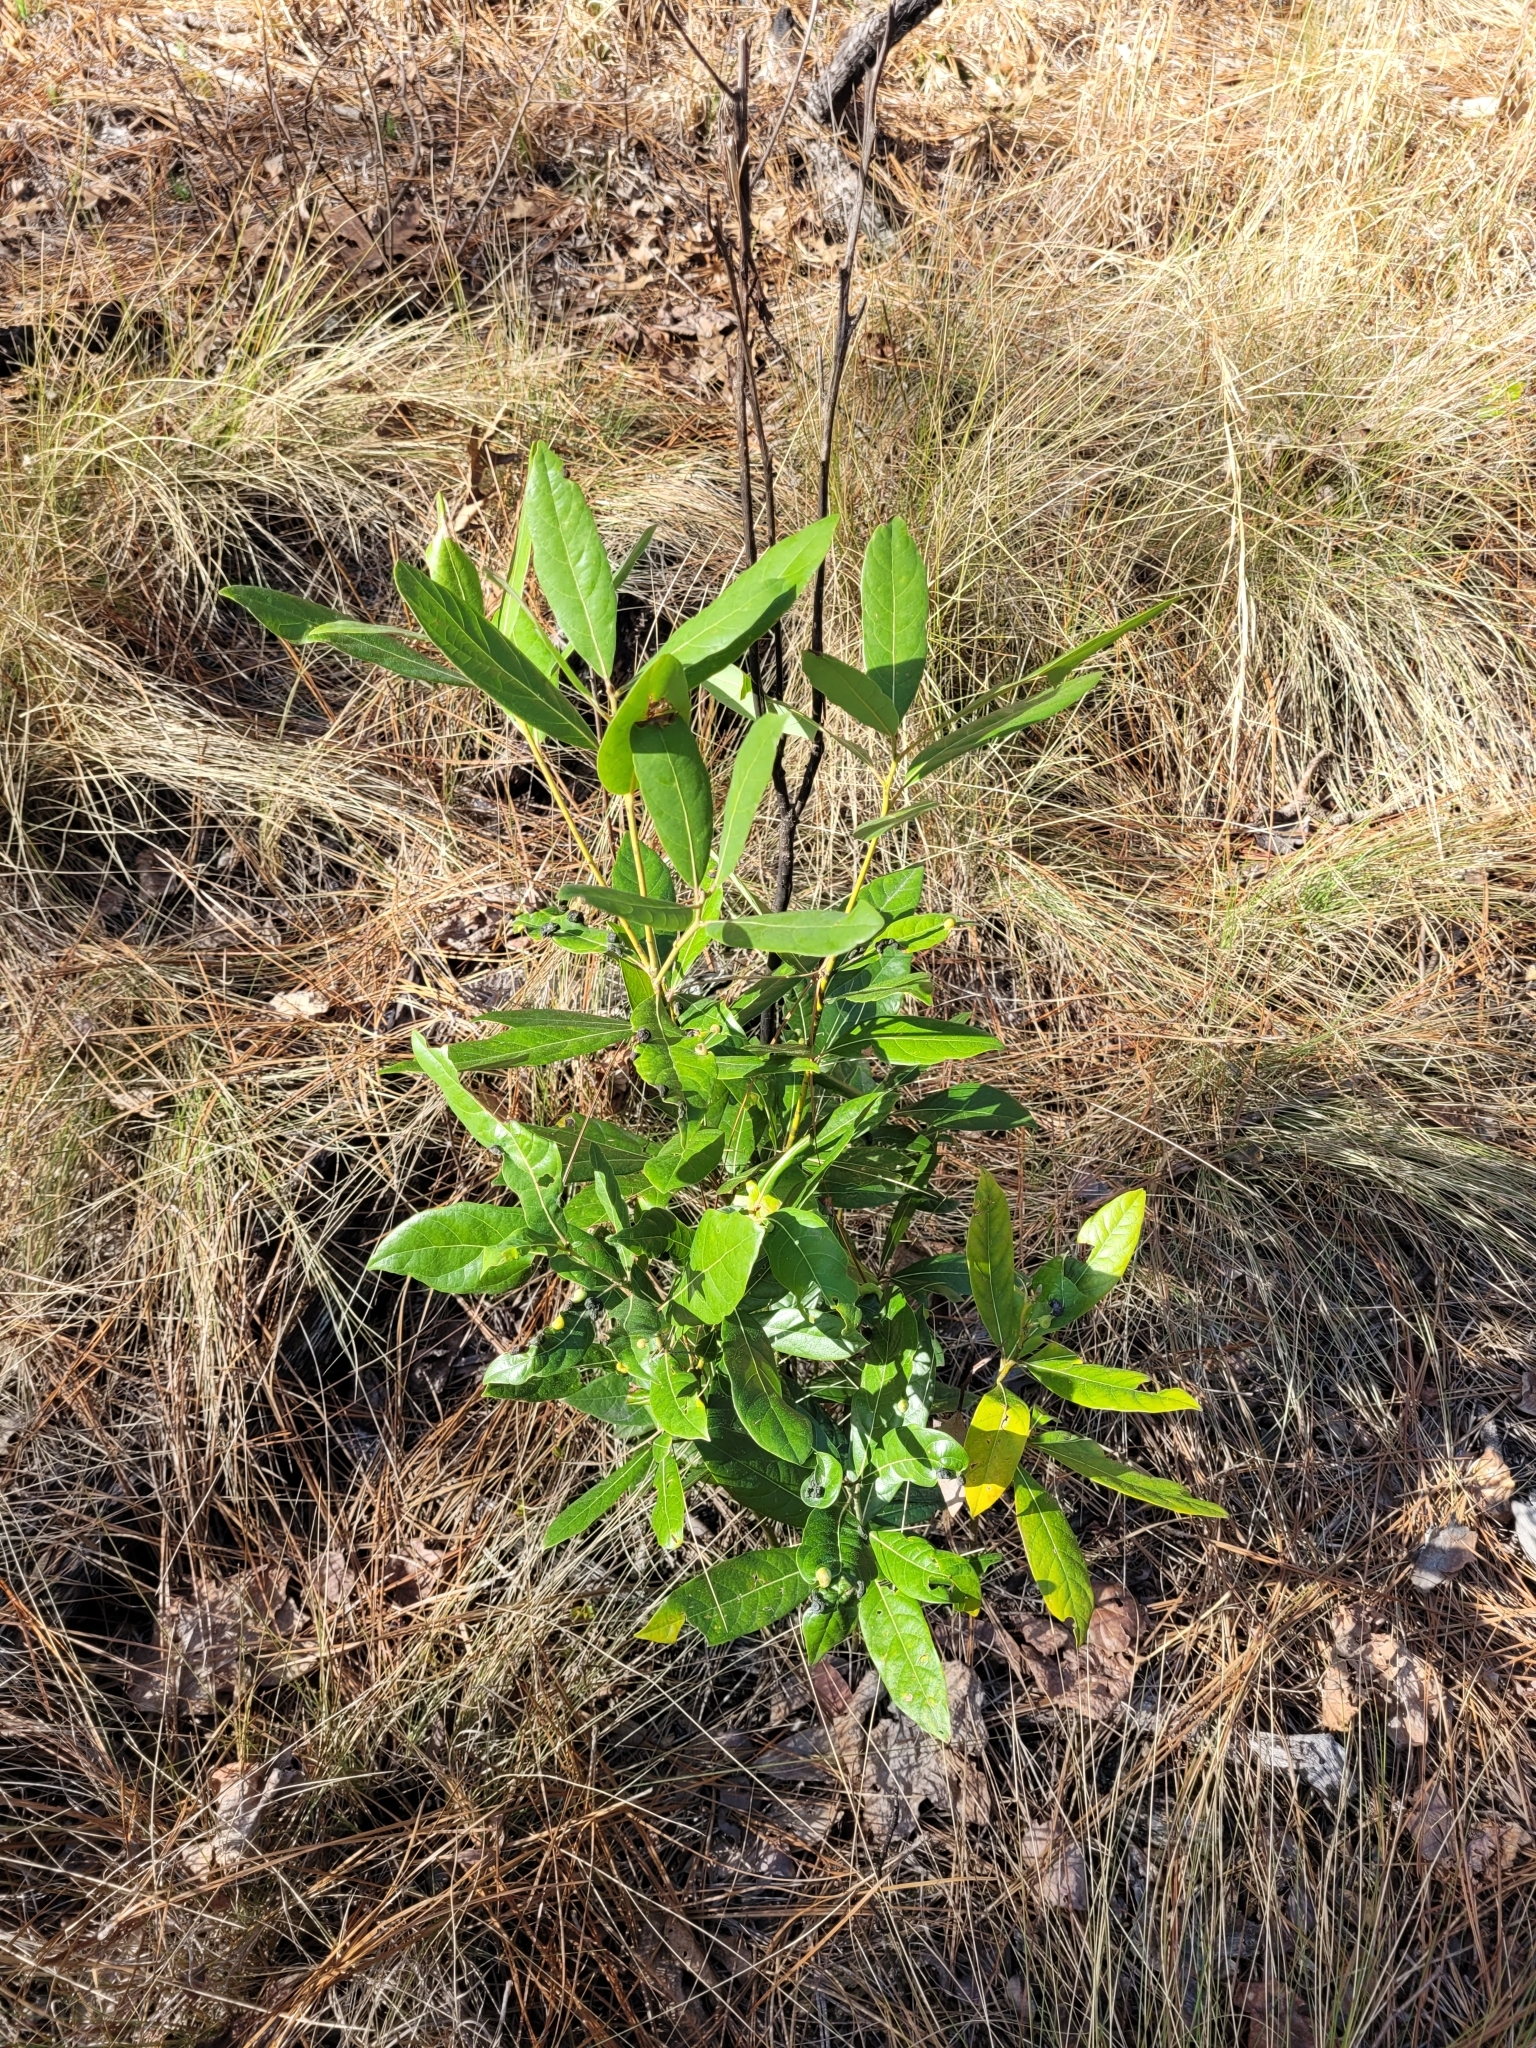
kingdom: Plantae
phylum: Tracheophyta
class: Magnoliopsida
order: Laurales
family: Lauraceae
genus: Persea
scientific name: Persea palustris
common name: Swampbay
